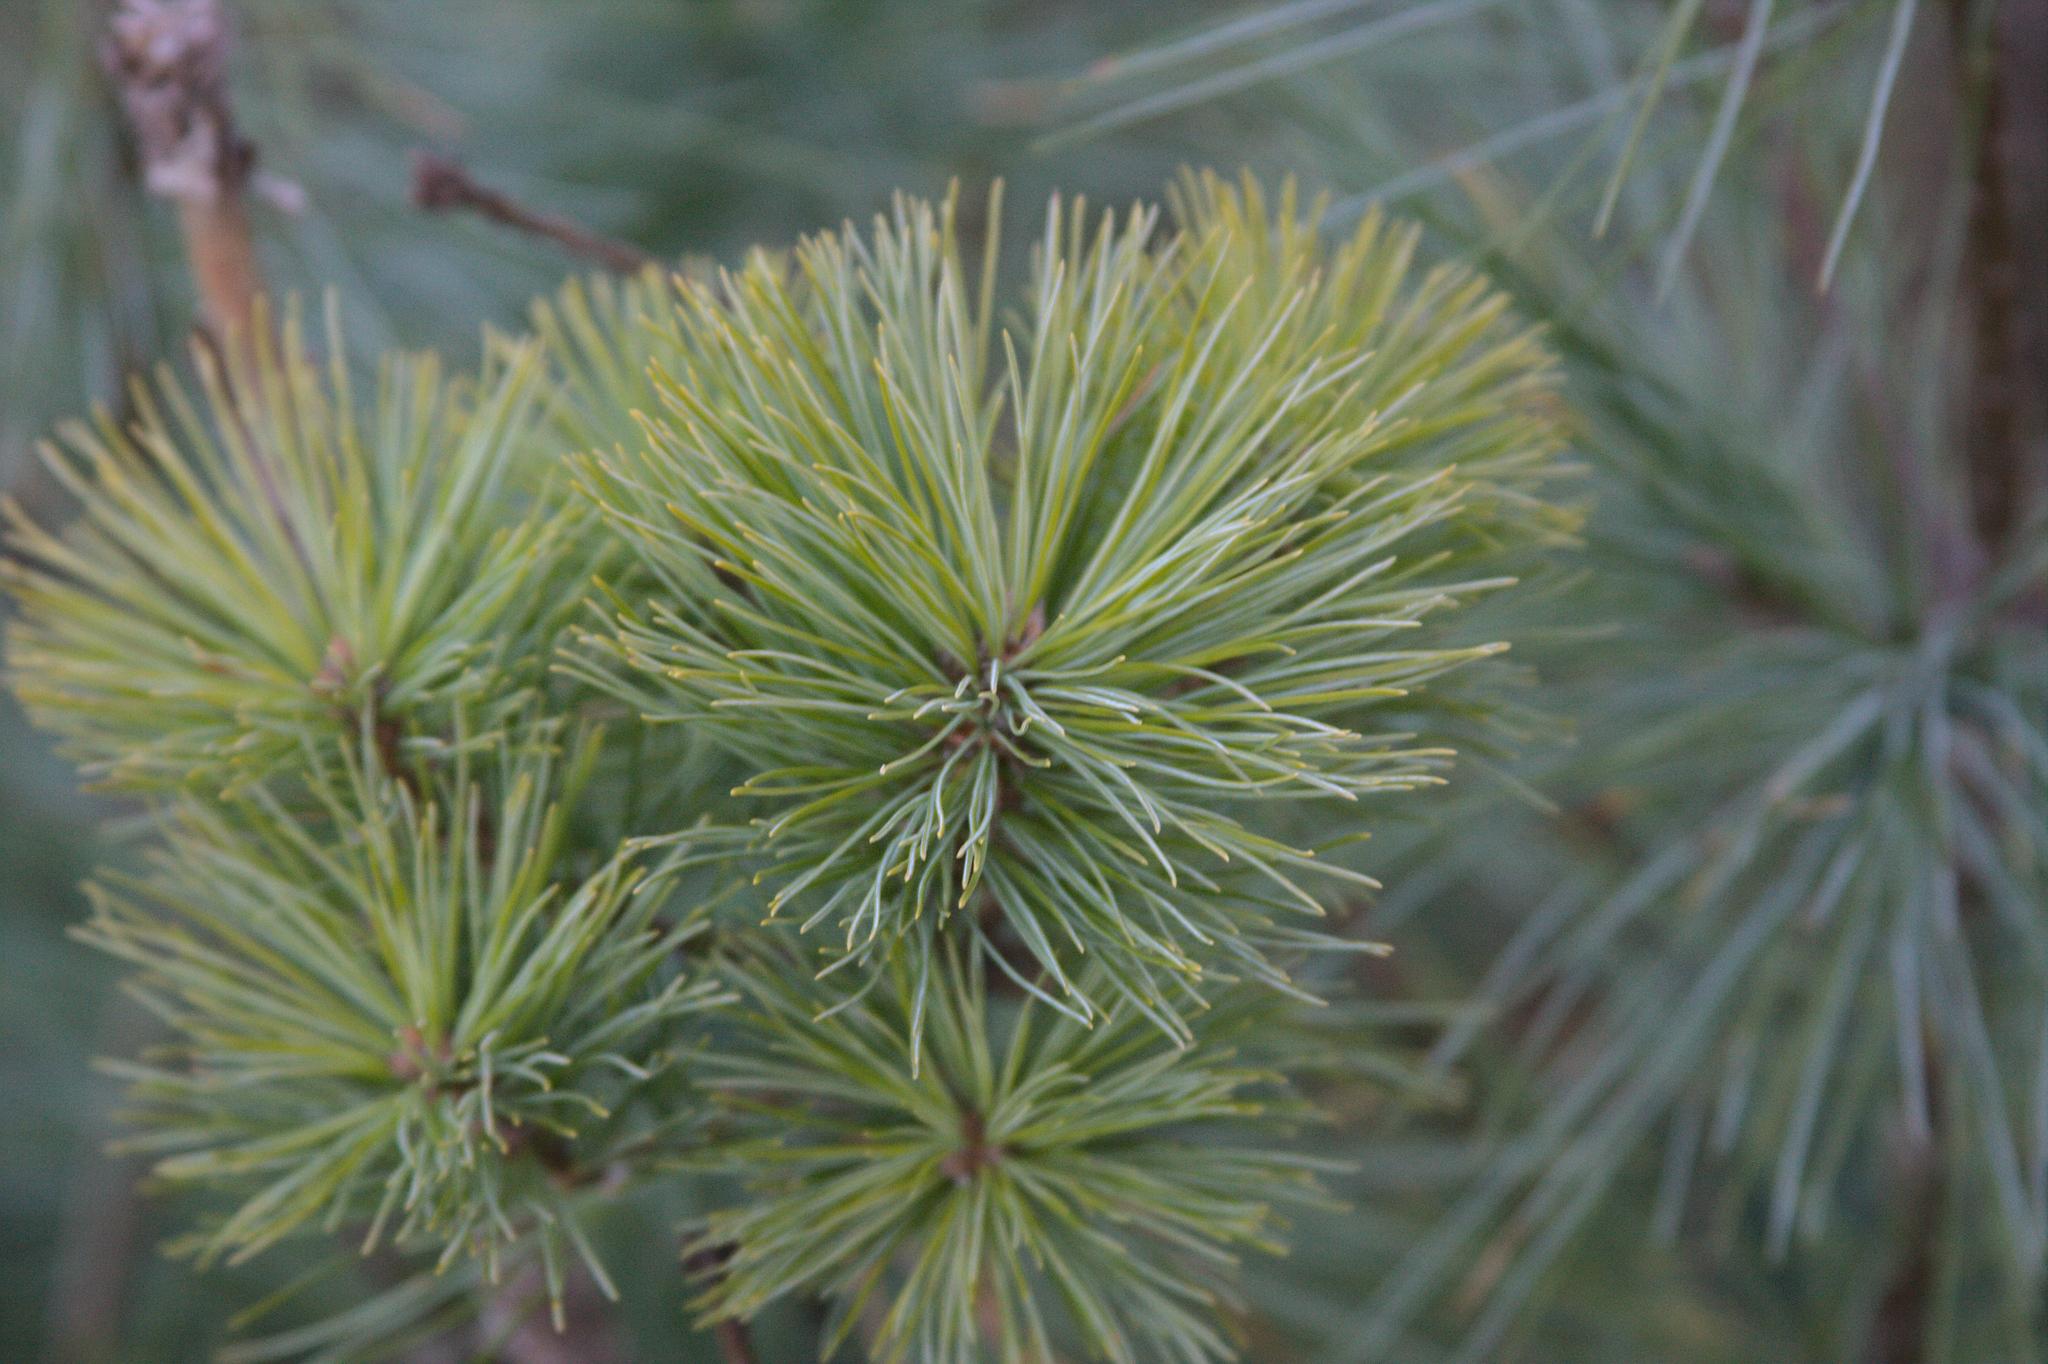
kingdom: Plantae
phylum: Tracheophyta
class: Pinopsida
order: Pinales
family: Pinaceae
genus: Pinus
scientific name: Pinus strobus
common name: Weymouth pine
